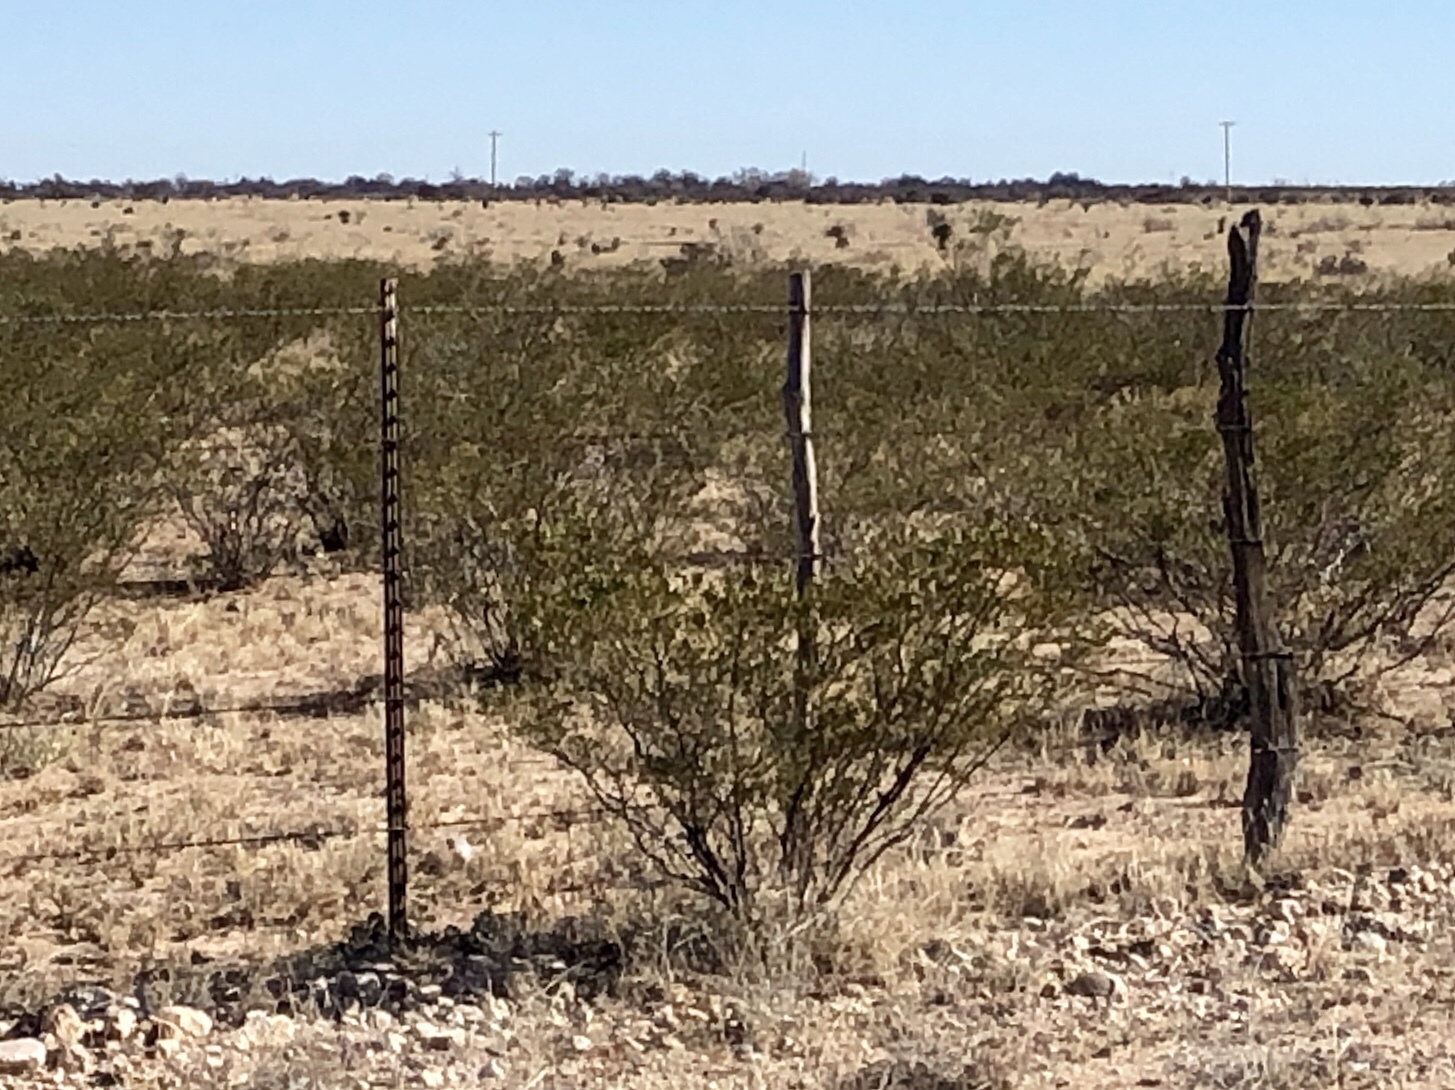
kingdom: Plantae
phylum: Tracheophyta
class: Magnoliopsida
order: Zygophyllales
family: Zygophyllaceae
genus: Larrea
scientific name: Larrea tridentata
